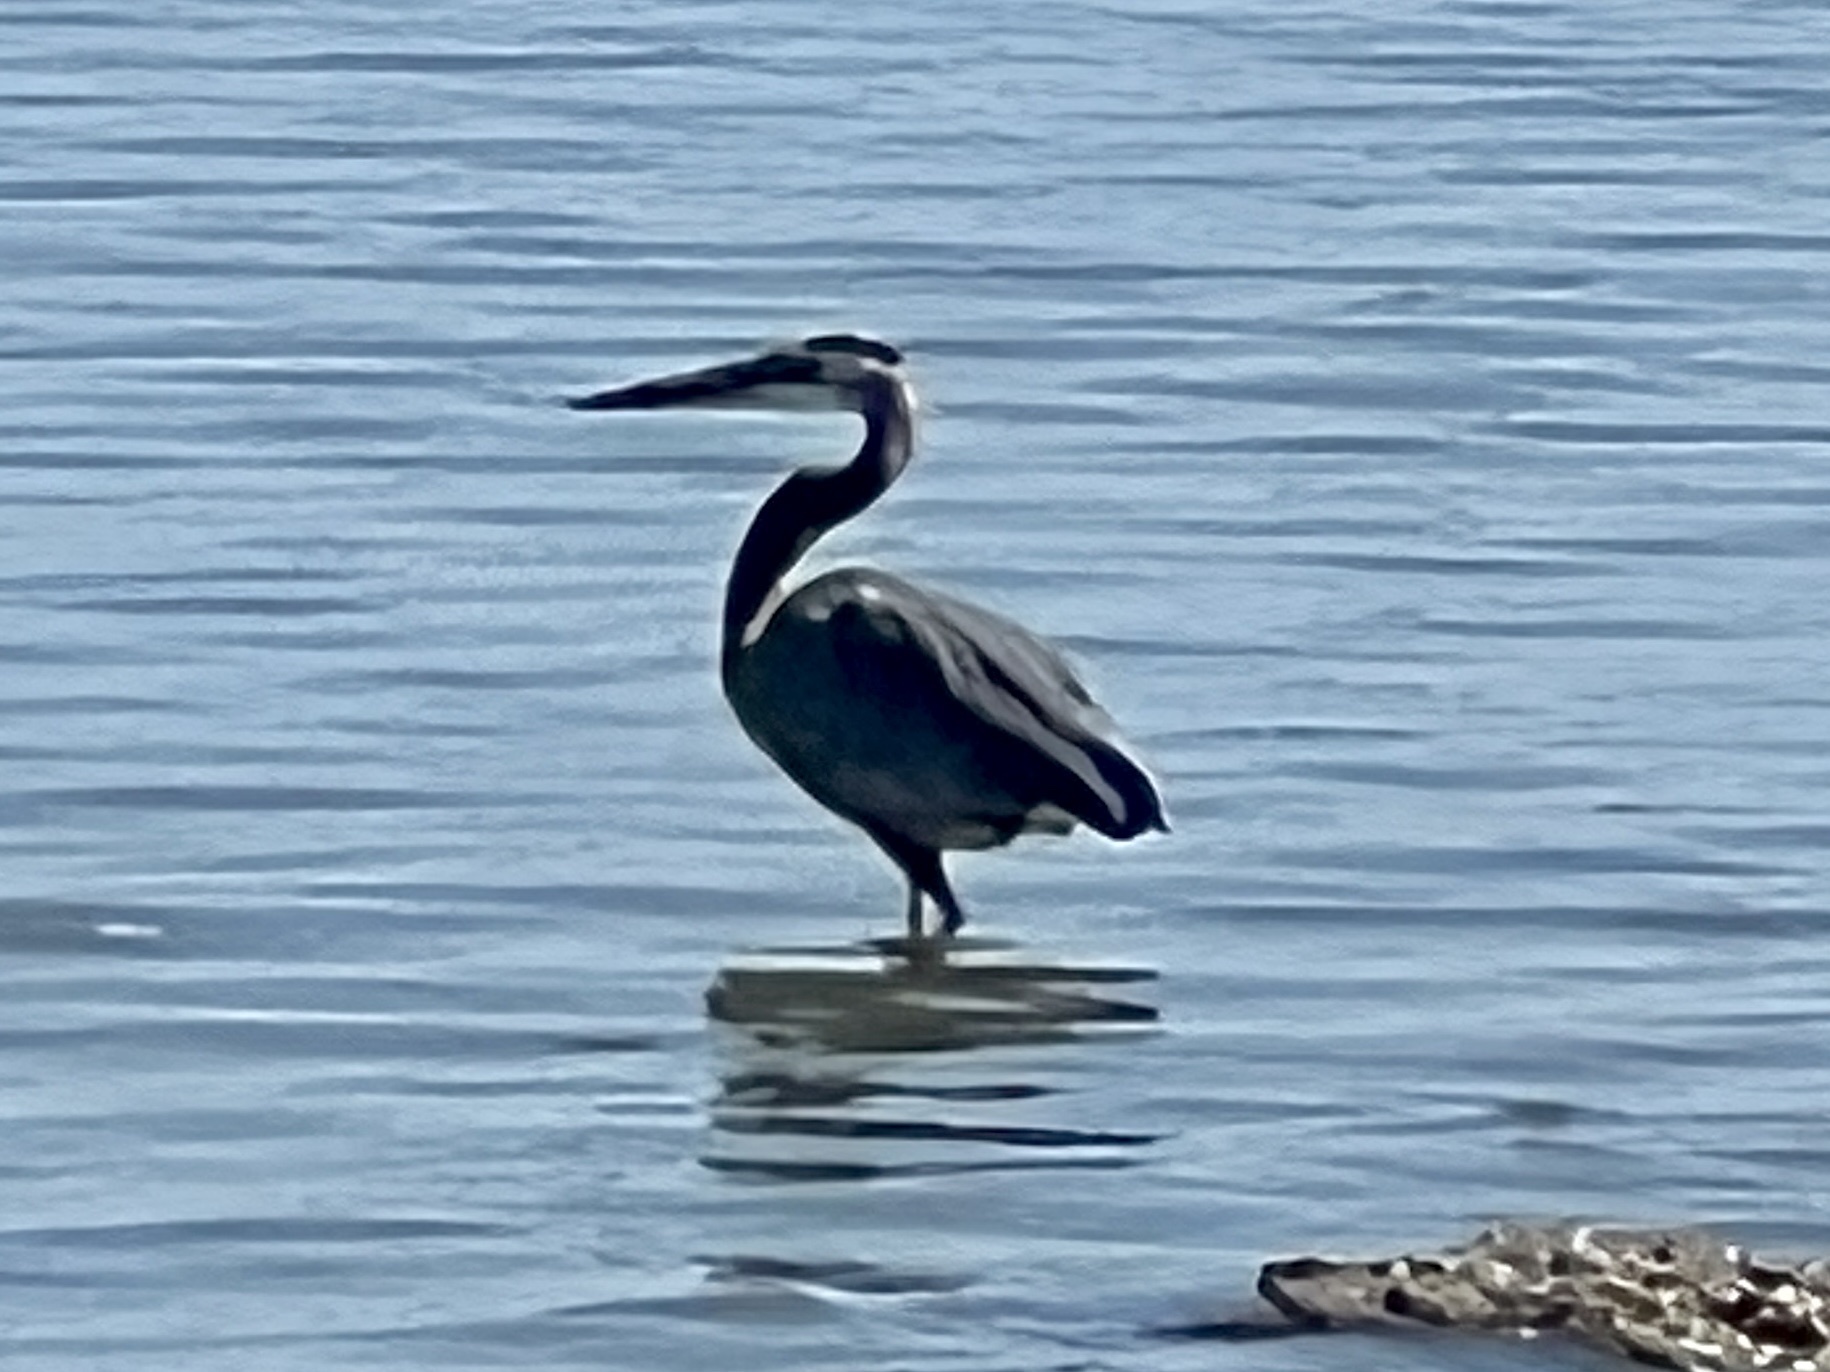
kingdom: Animalia
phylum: Chordata
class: Aves
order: Pelecaniformes
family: Ardeidae
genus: Ardea
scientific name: Ardea herodias
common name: Great blue heron
